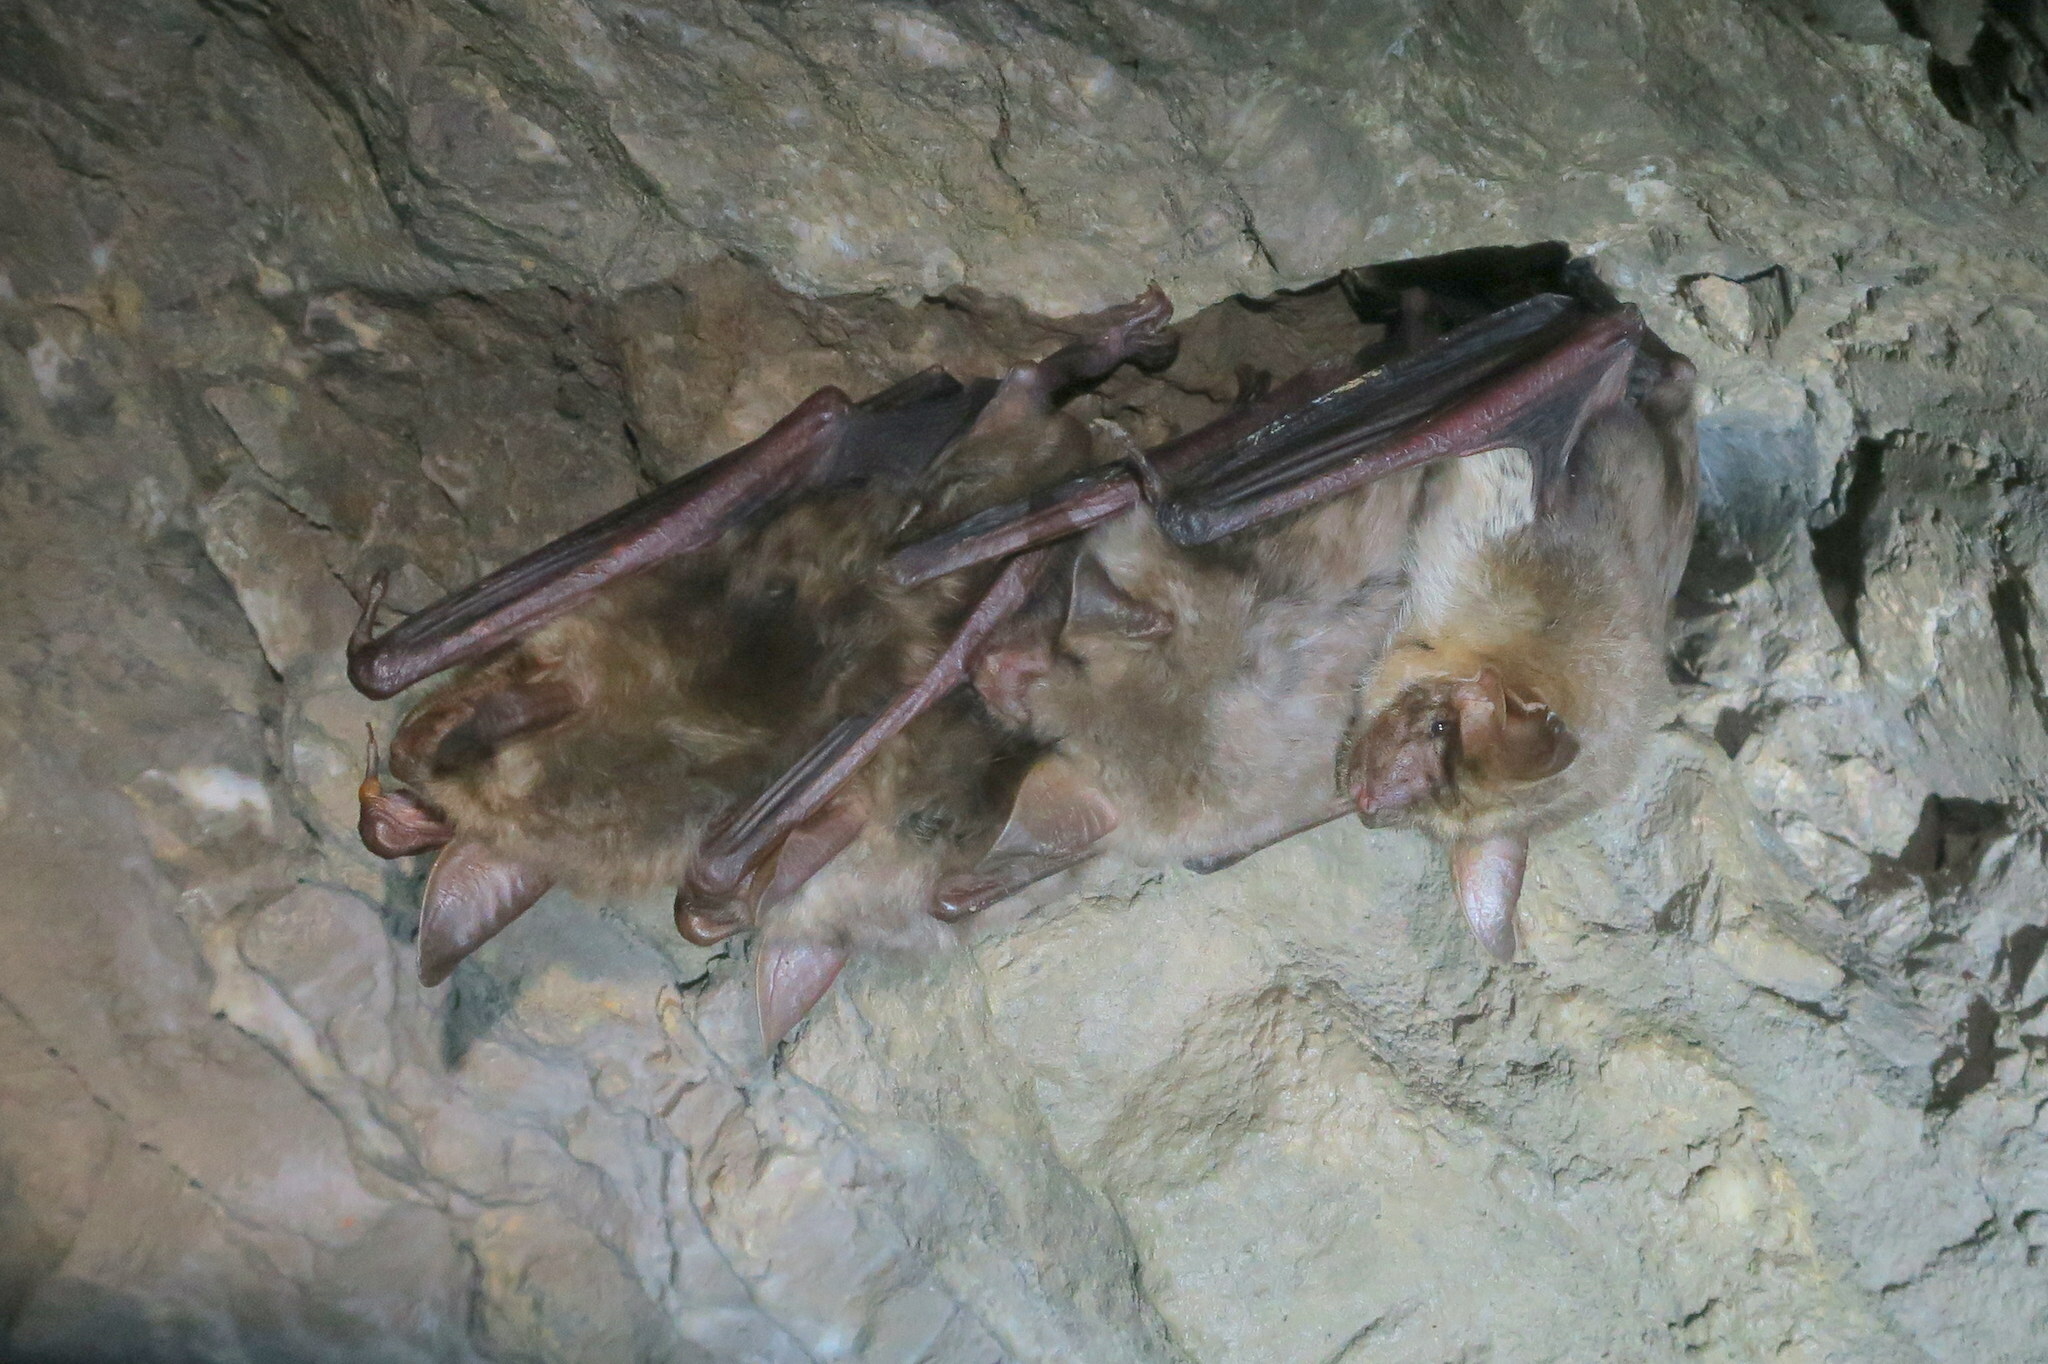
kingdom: Animalia
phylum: Chordata
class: Mammalia
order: Chiroptera
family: Vespertilionidae
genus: Myotis
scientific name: Myotis myotis
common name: Greater mouse-eared bat
